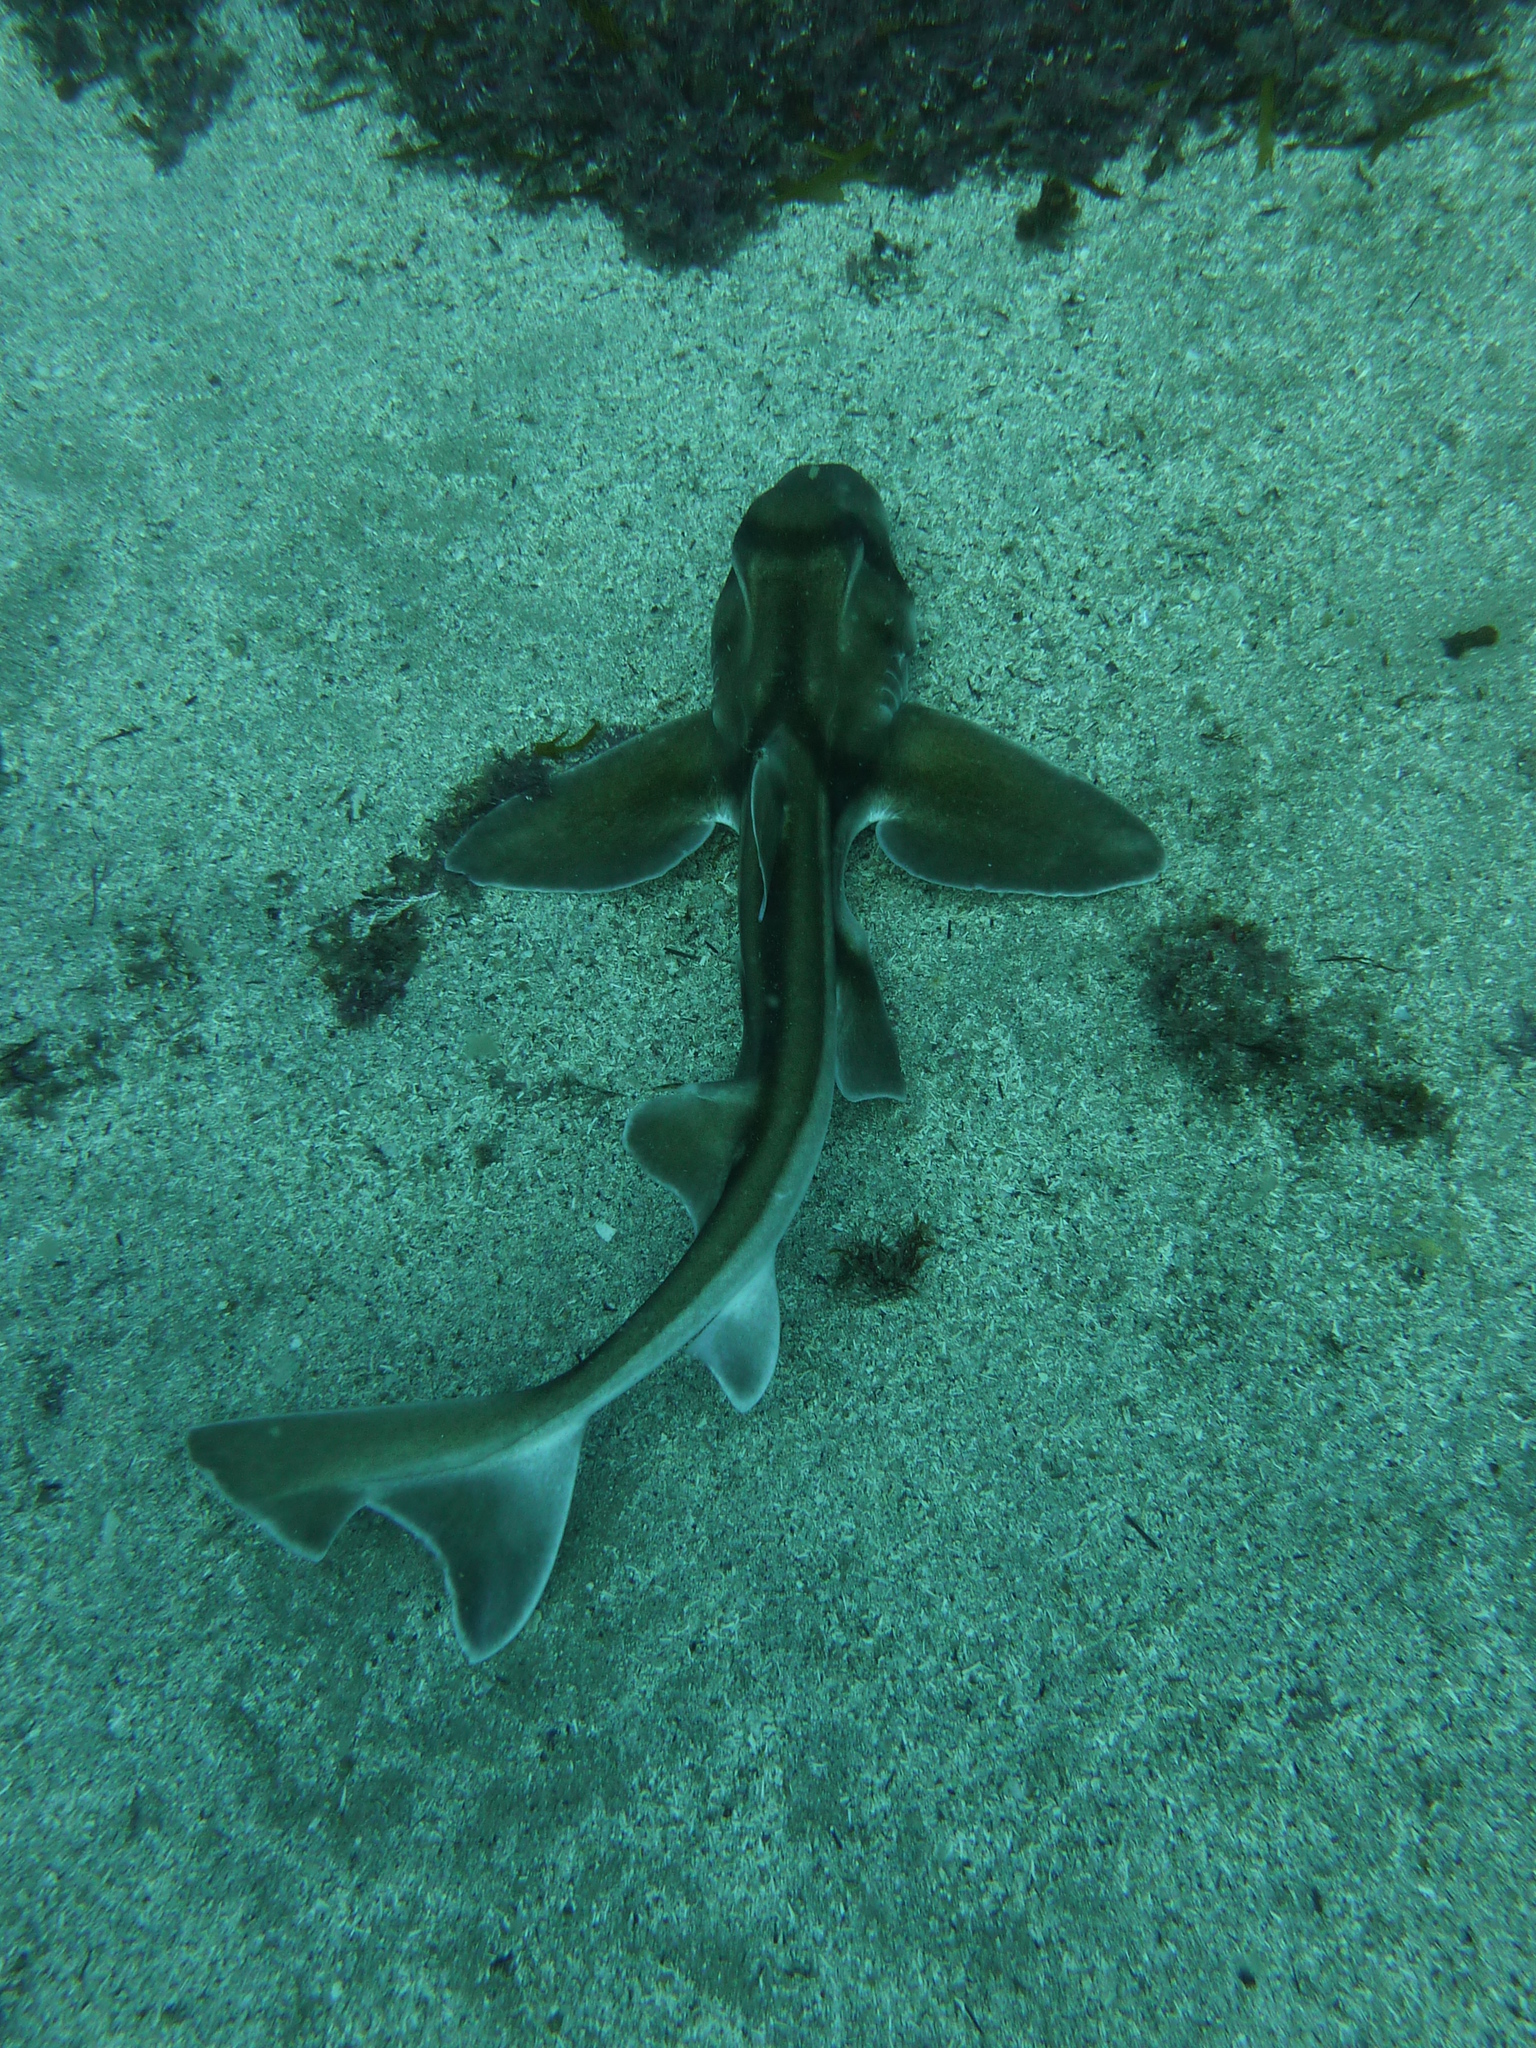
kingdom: Animalia
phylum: Chordata
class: Elasmobranchii
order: Heterodontiformes
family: Heterodontidae
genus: Heterodontus
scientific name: Heterodontus portusjacksoni
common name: Port jackson shark
